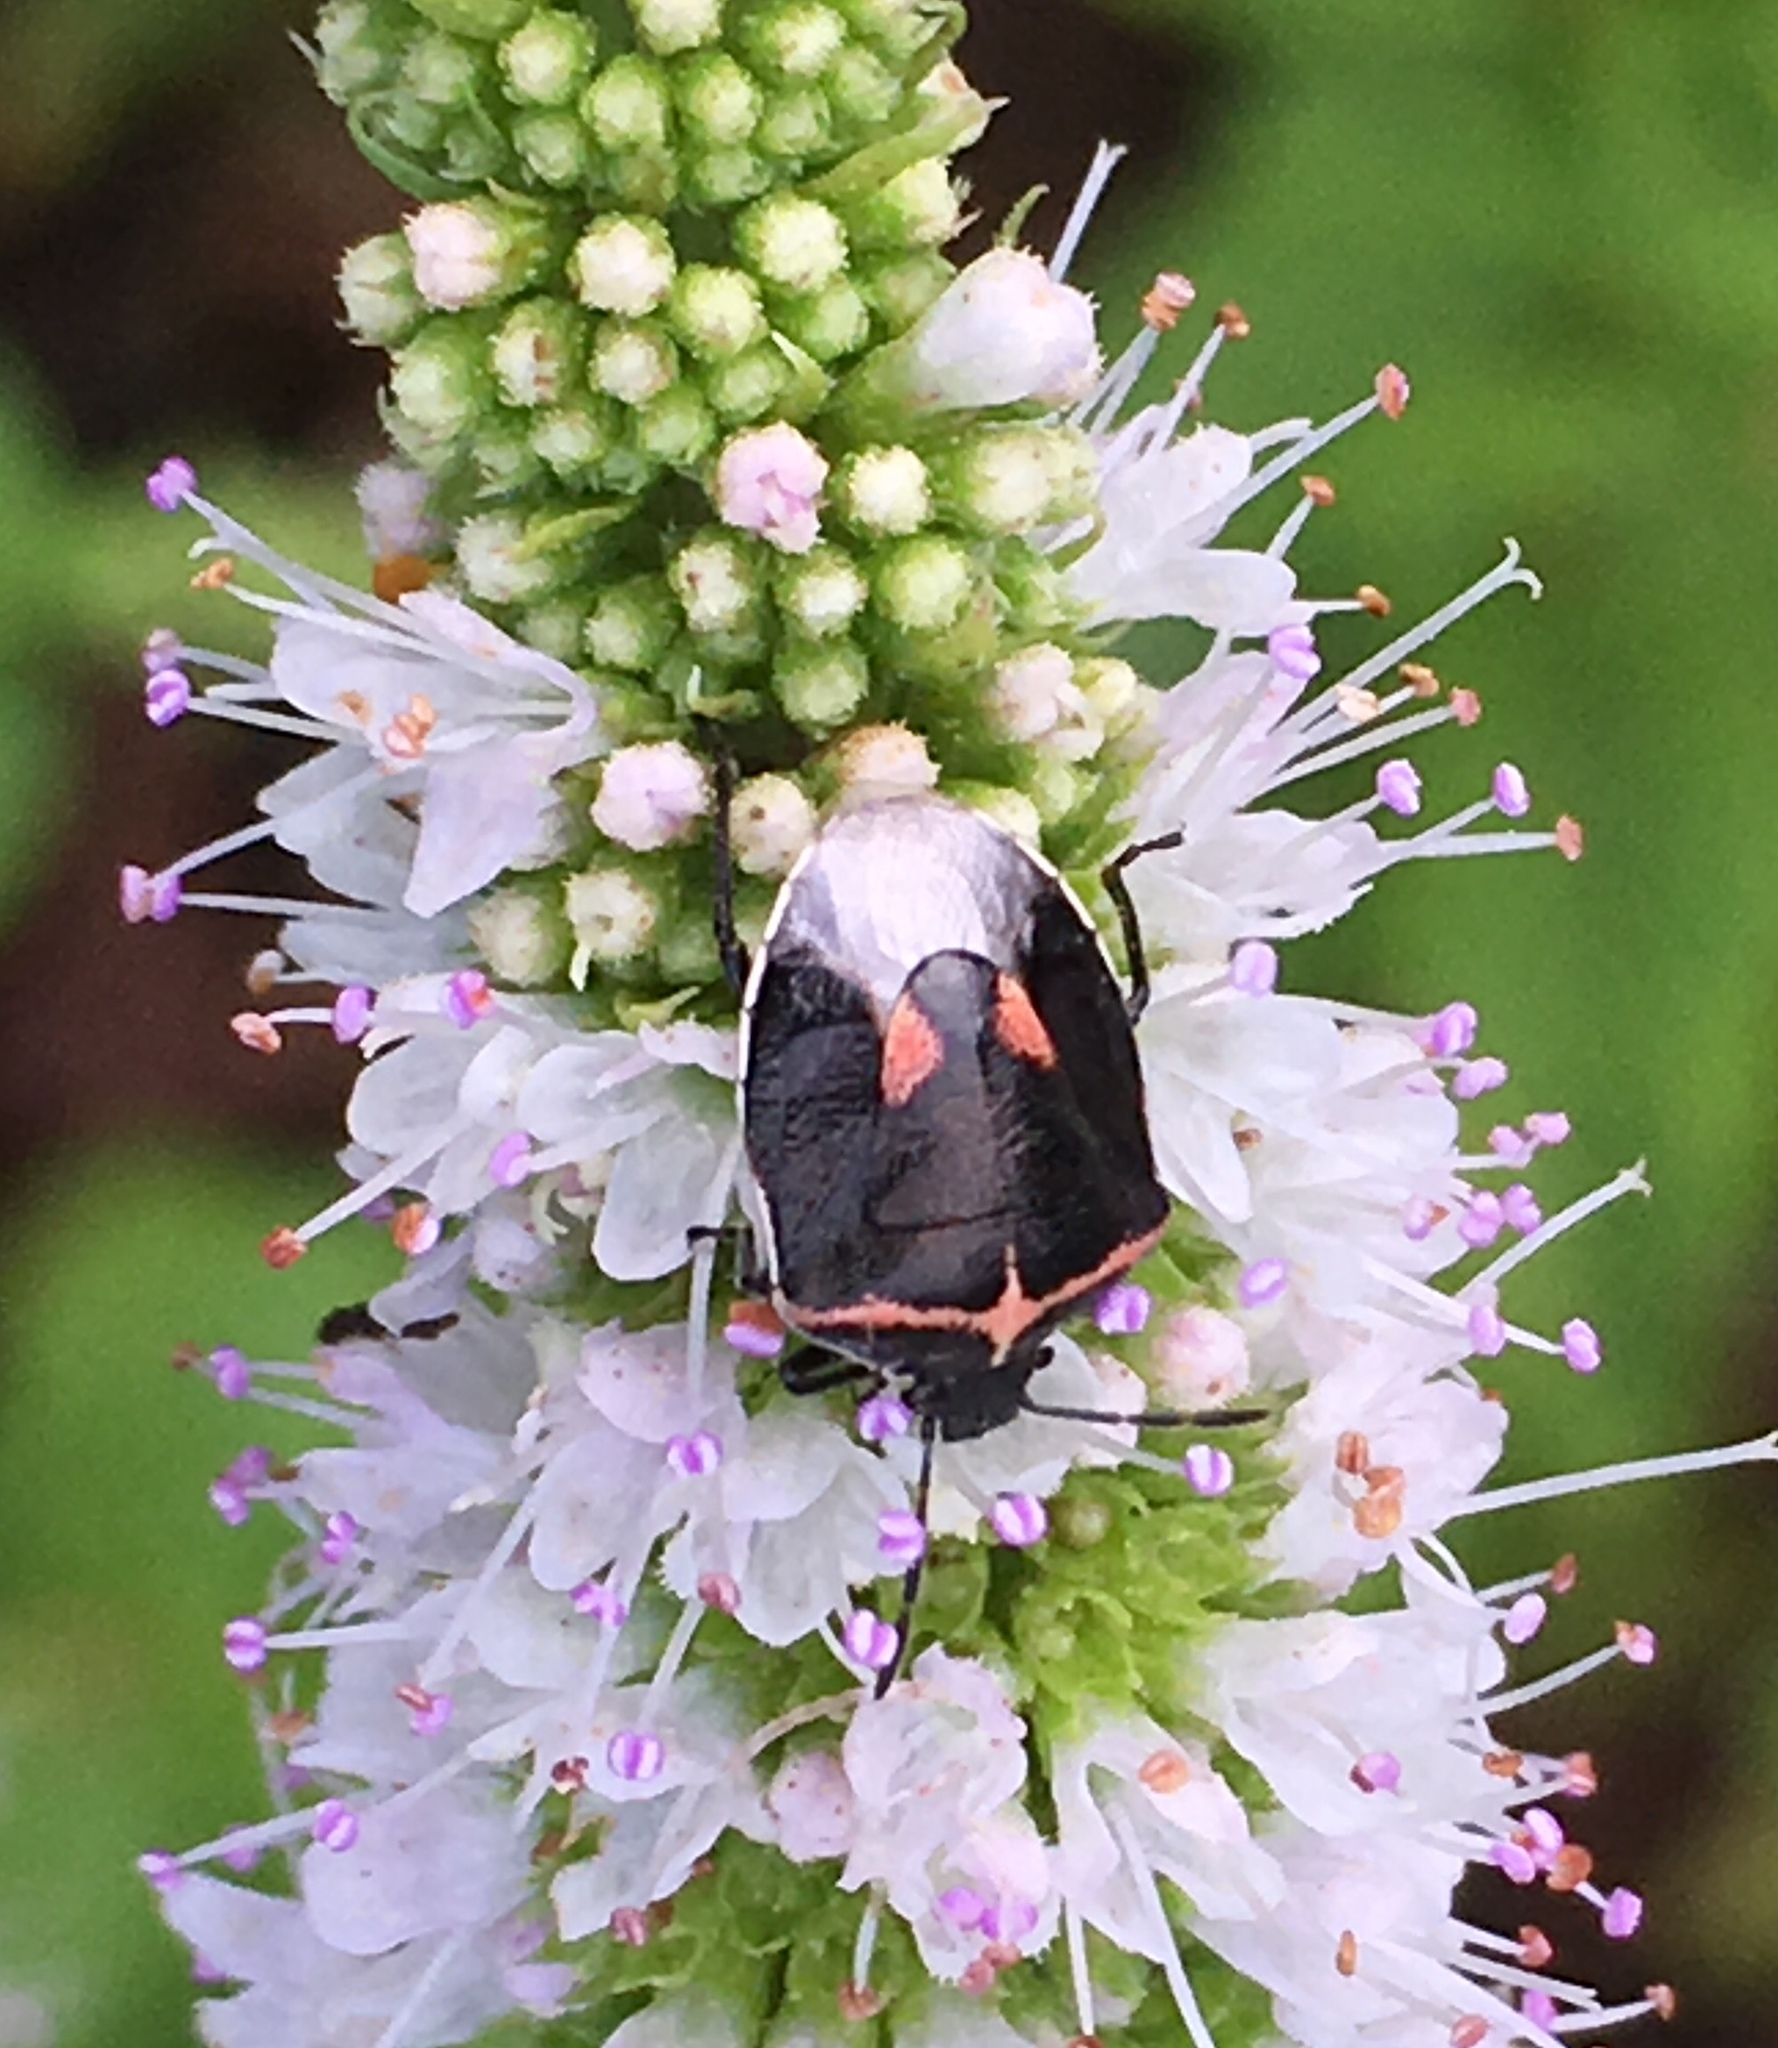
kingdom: Animalia
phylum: Arthropoda
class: Insecta
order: Hemiptera
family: Pentatomidae
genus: Cosmopepla
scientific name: Cosmopepla lintneriana
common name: Twice-stabbed stink bug
